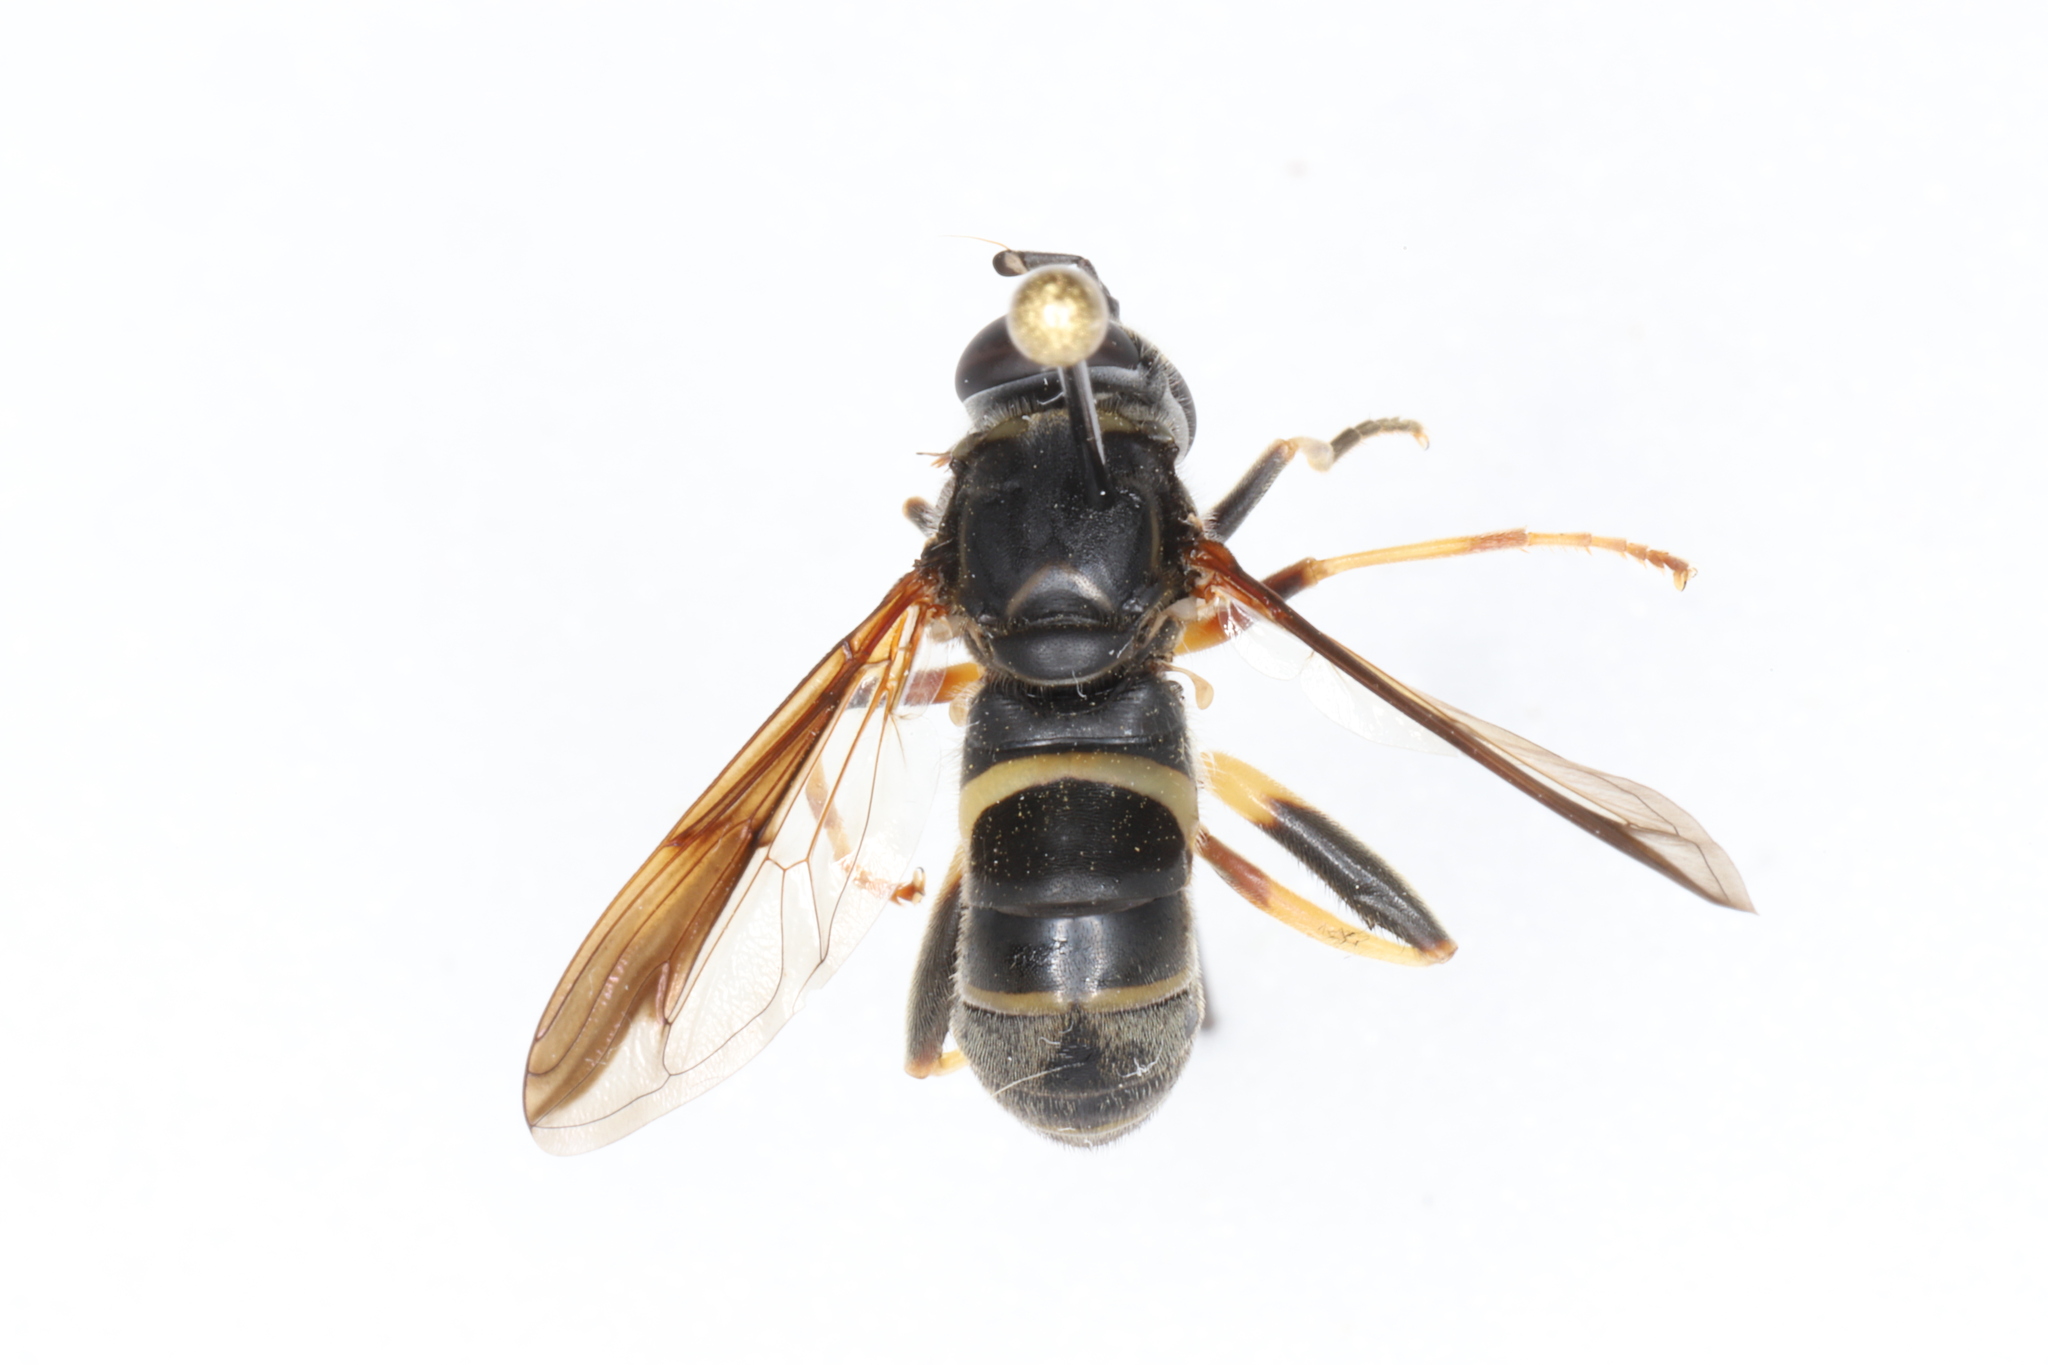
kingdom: Animalia
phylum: Arthropoda
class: Insecta
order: Diptera
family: Syrphidae
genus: Spilomyia
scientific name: Spilomyia sayi
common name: Four-lined hornet fly
